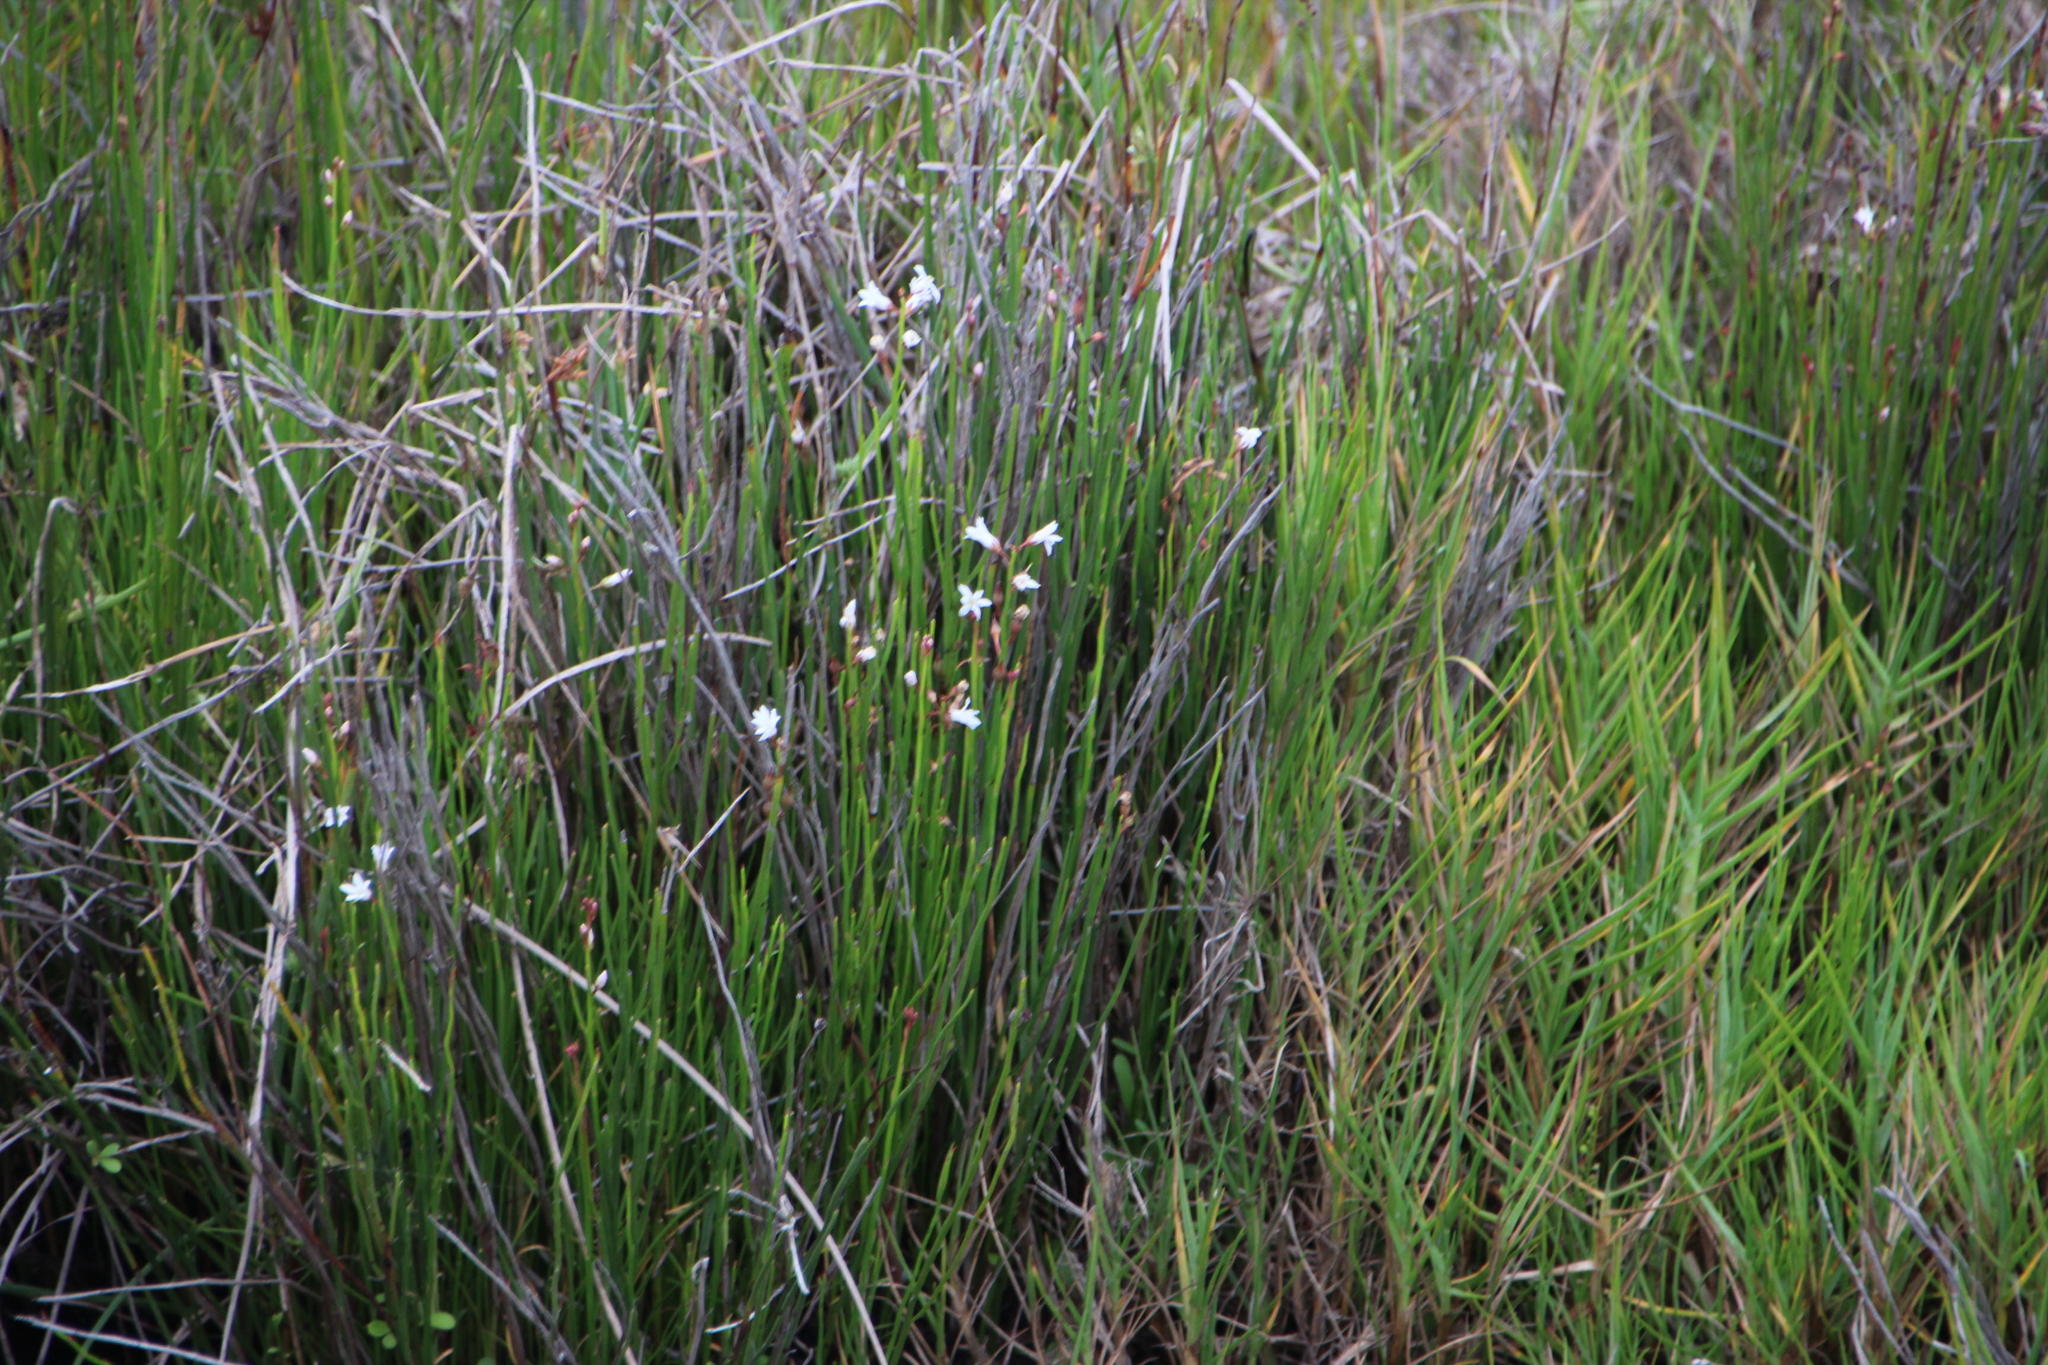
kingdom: Plantae
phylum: Tracheophyta
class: Magnoliopsida
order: Ericales
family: Primulaceae
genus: Samolus
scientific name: Samolus porosus
